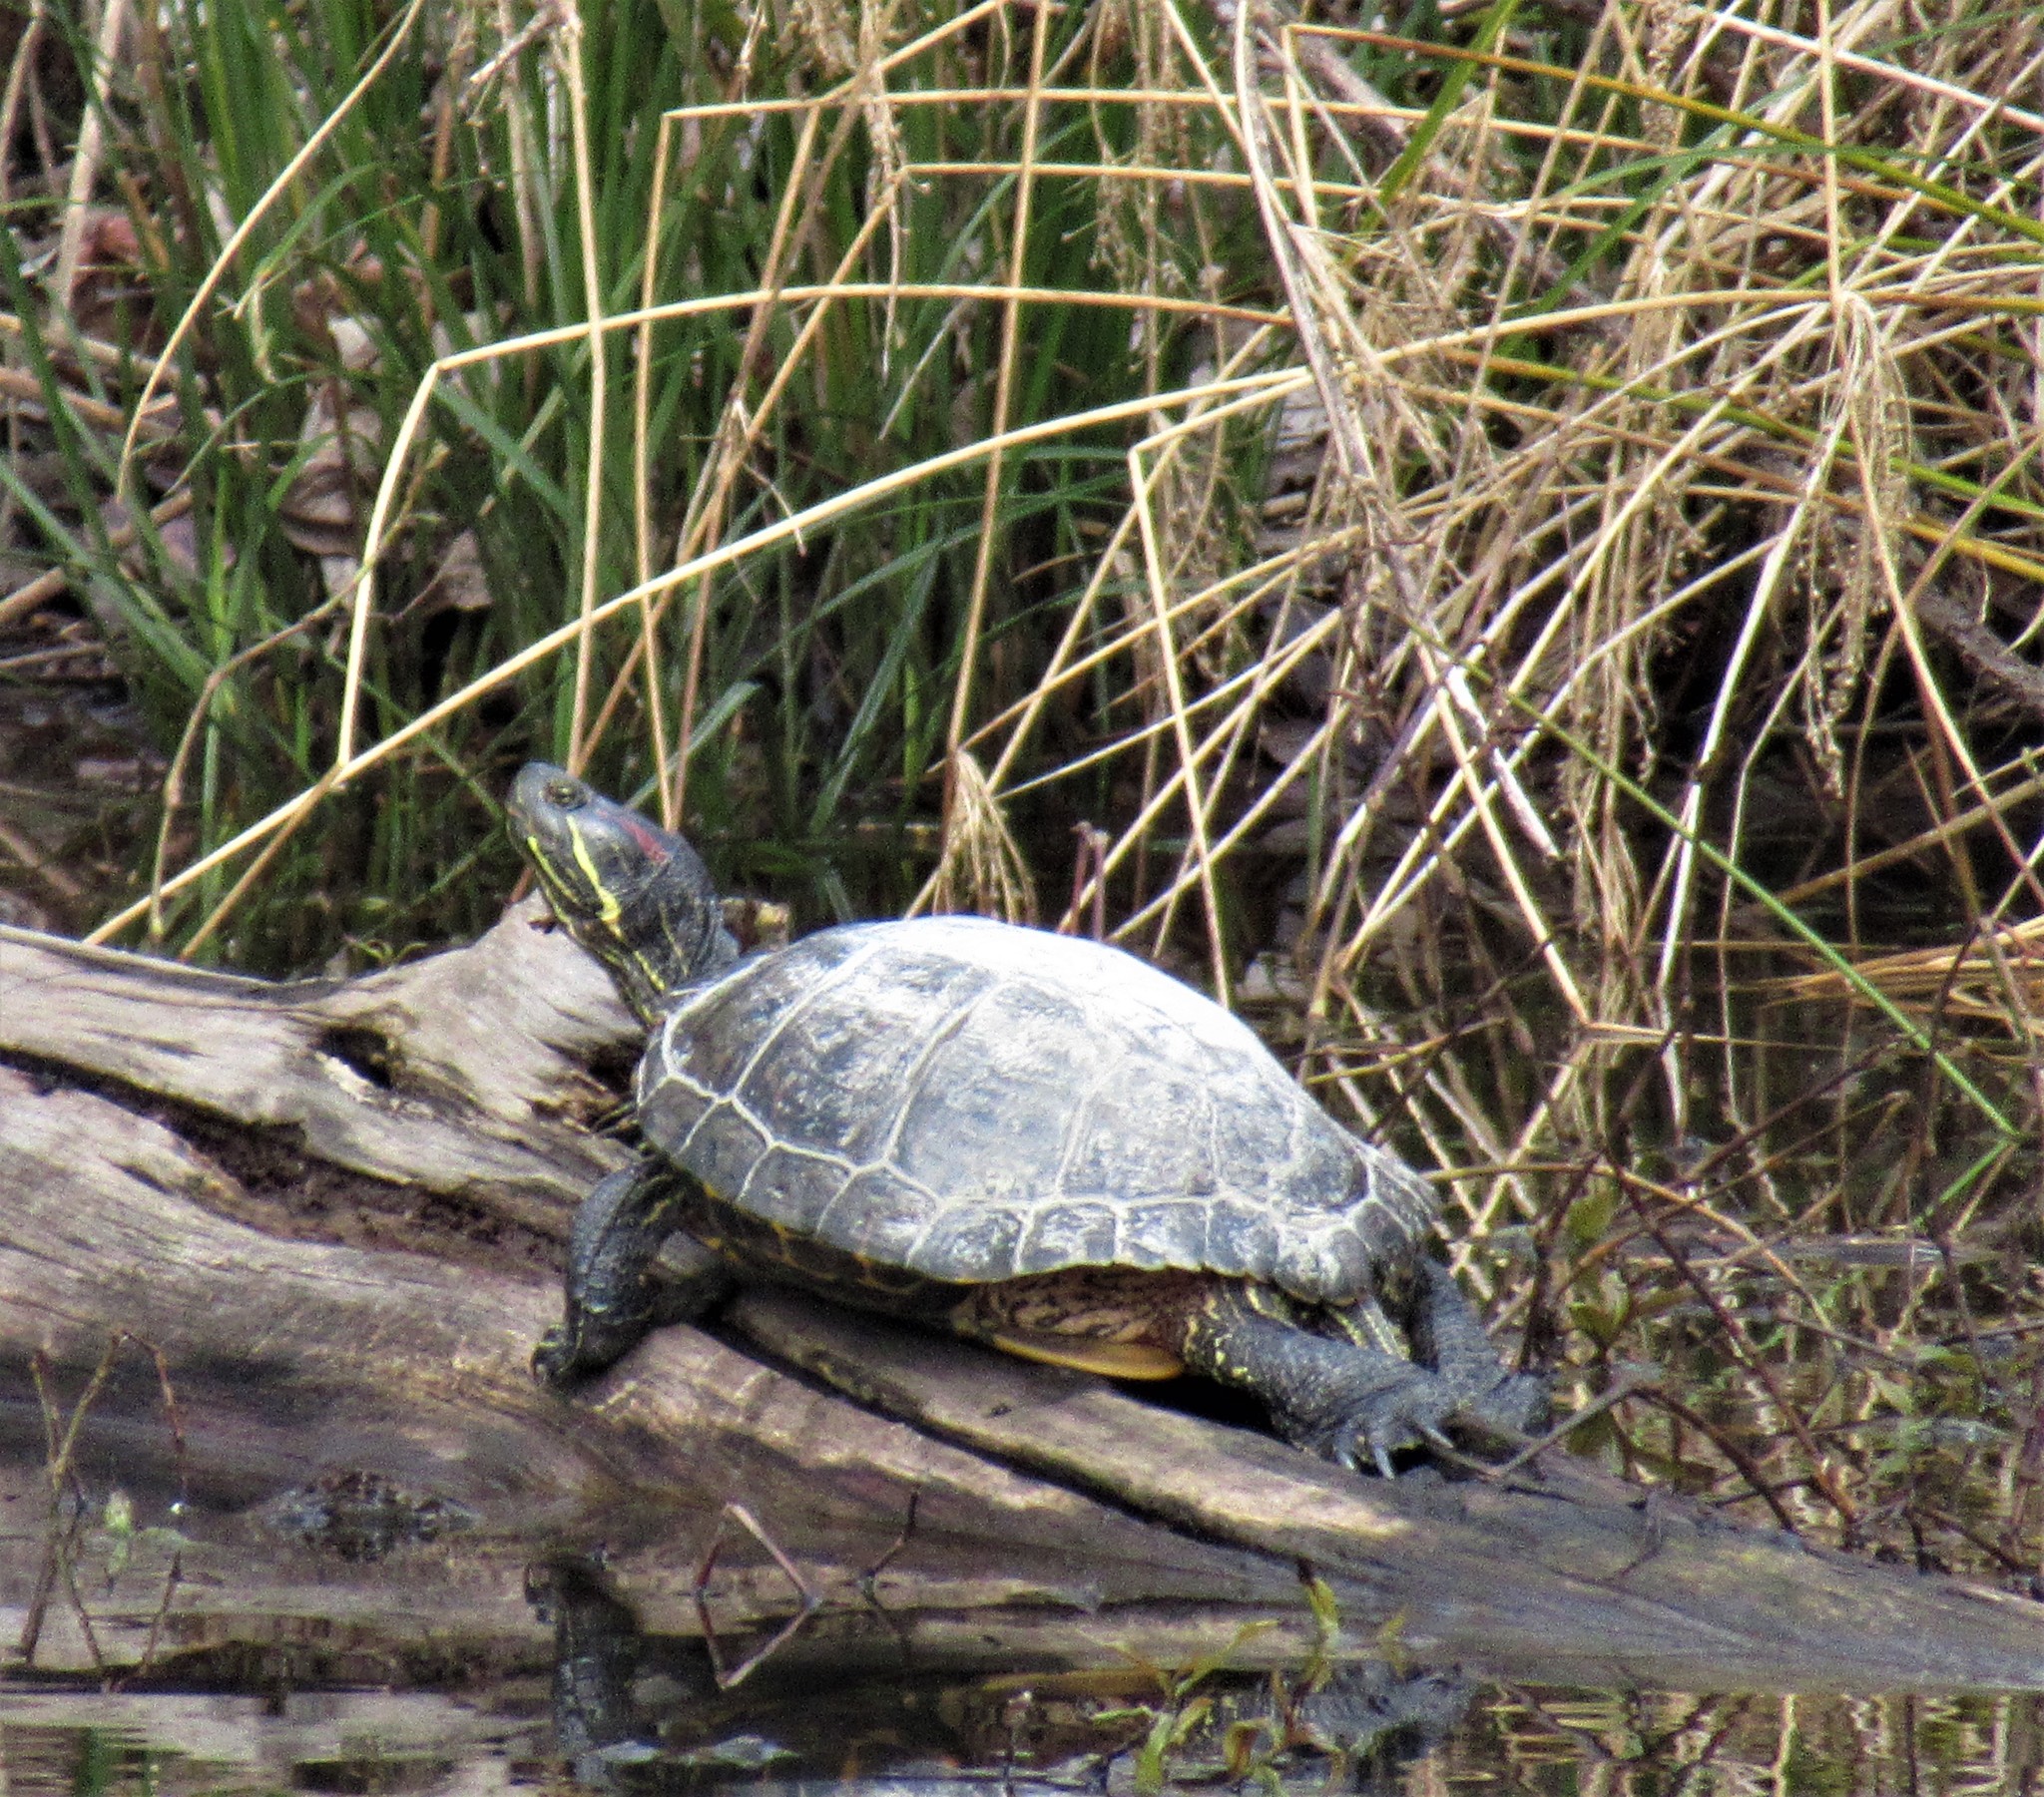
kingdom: Animalia
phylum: Chordata
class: Testudines
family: Emydidae
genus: Trachemys
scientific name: Trachemys scripta
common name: Slider
